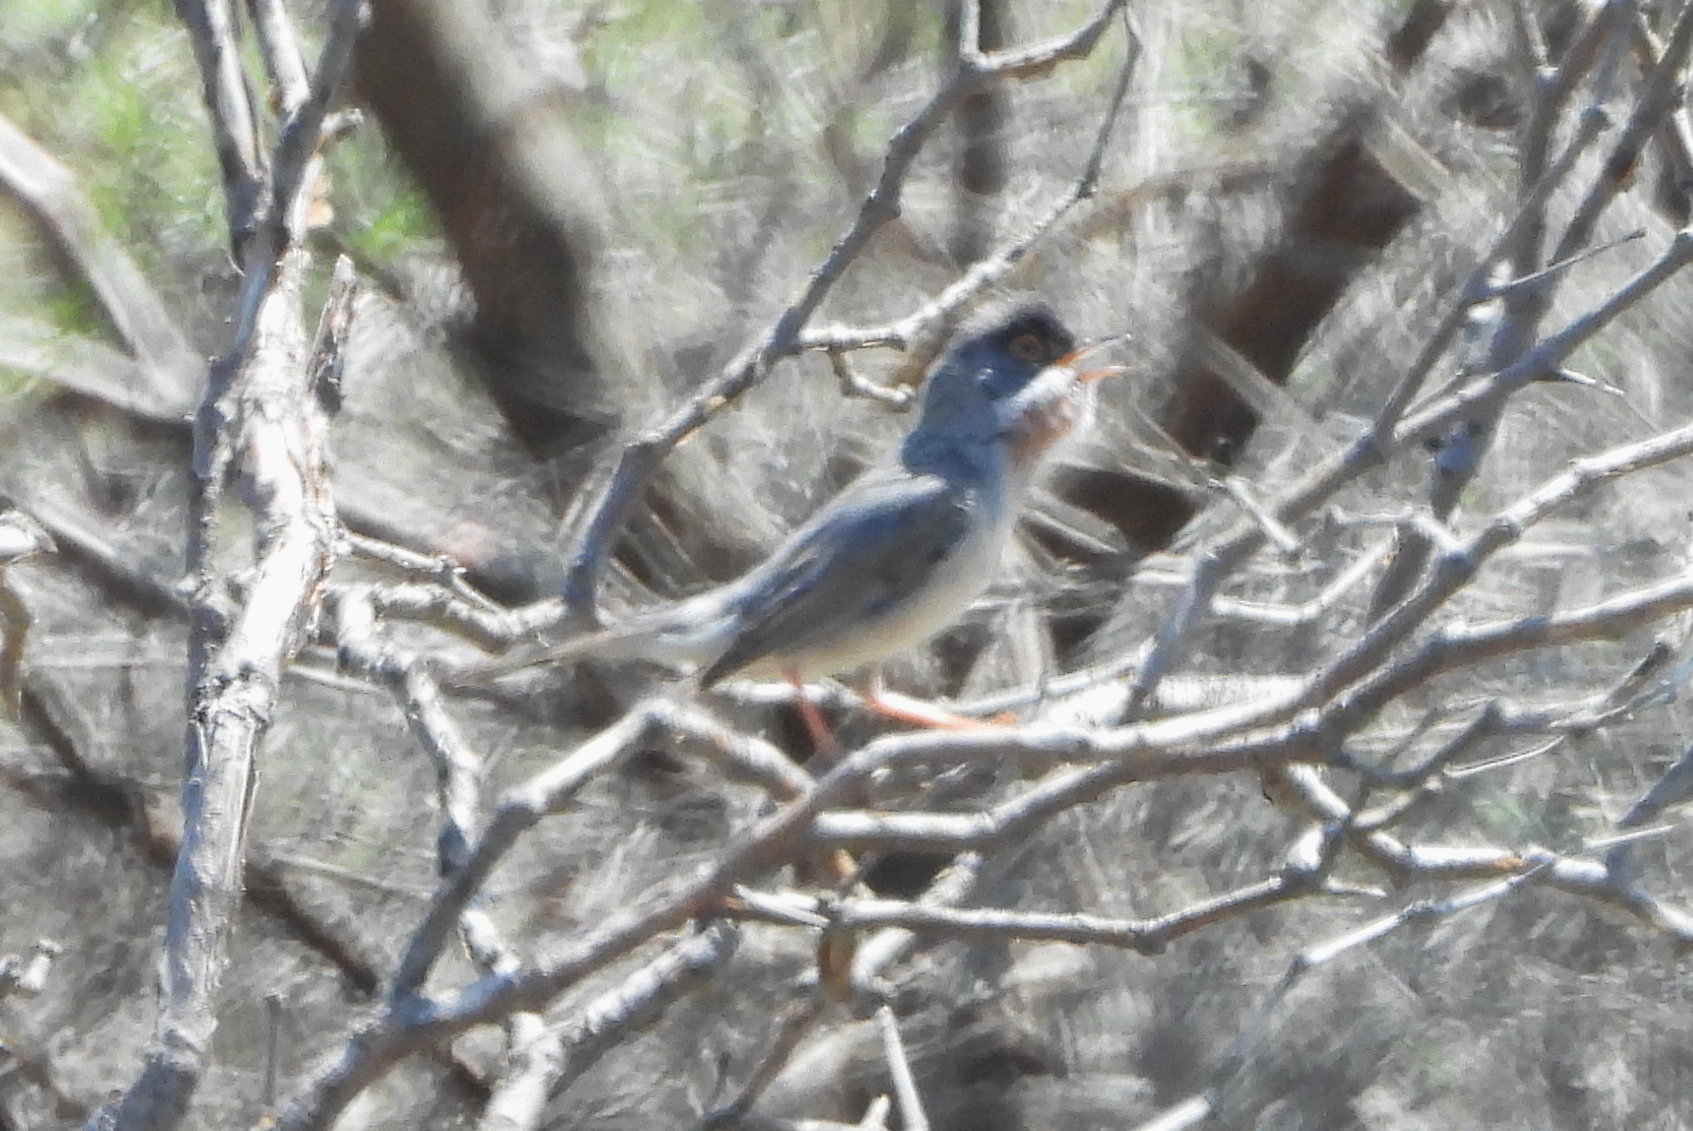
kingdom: Animalia
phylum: Chordata
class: Aves
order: Passeriformes
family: Sylviidae
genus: Sylvia
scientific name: Sylvia mystacea
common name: Menetries's warbler
